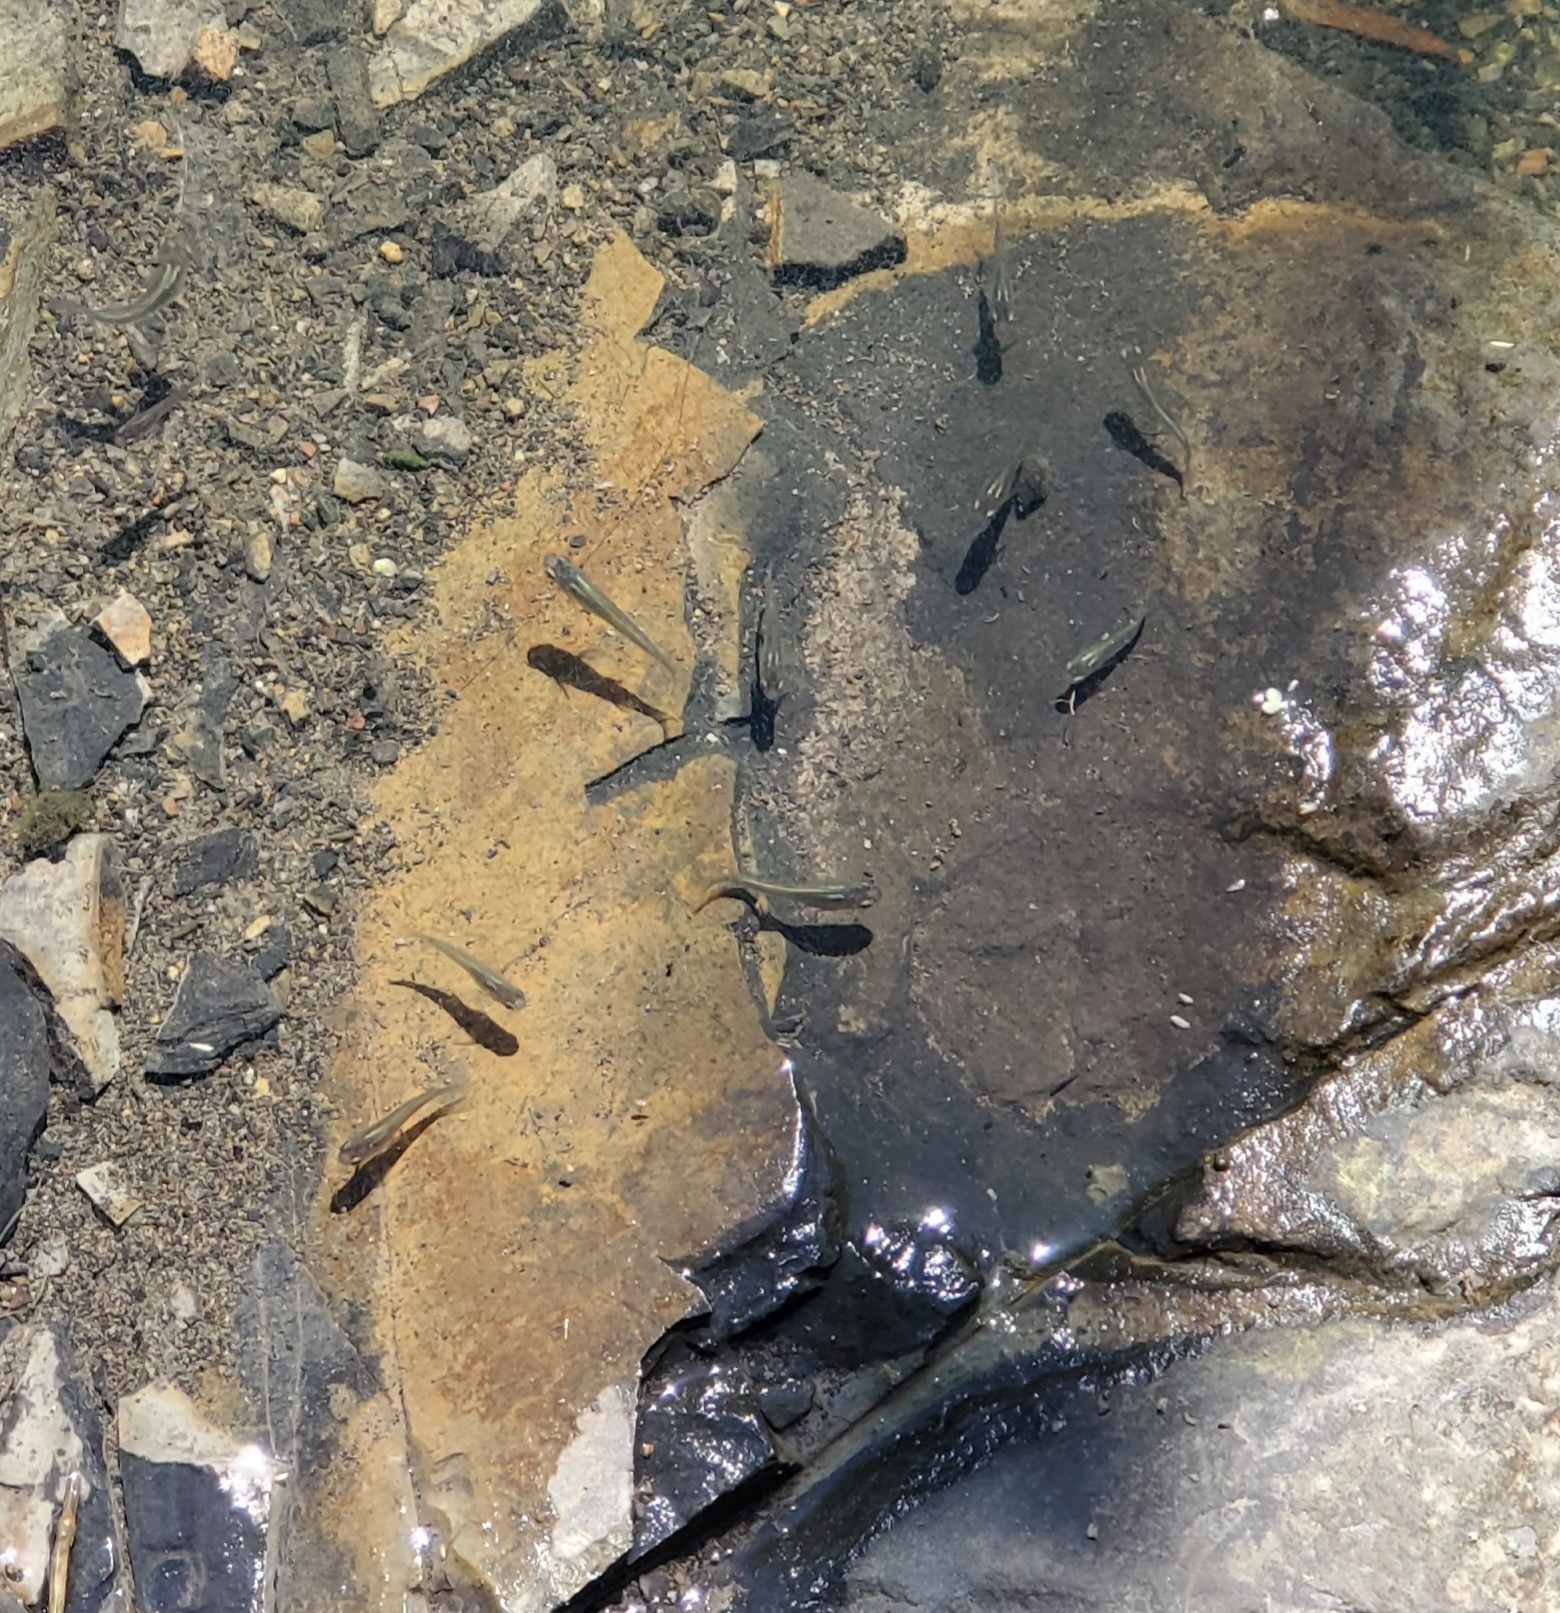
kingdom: Animalia
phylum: Chordata
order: Cyprinodontiformes
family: Poeciliidae
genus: Gambusia
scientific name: Gambusia affinis
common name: Mosquitofish
